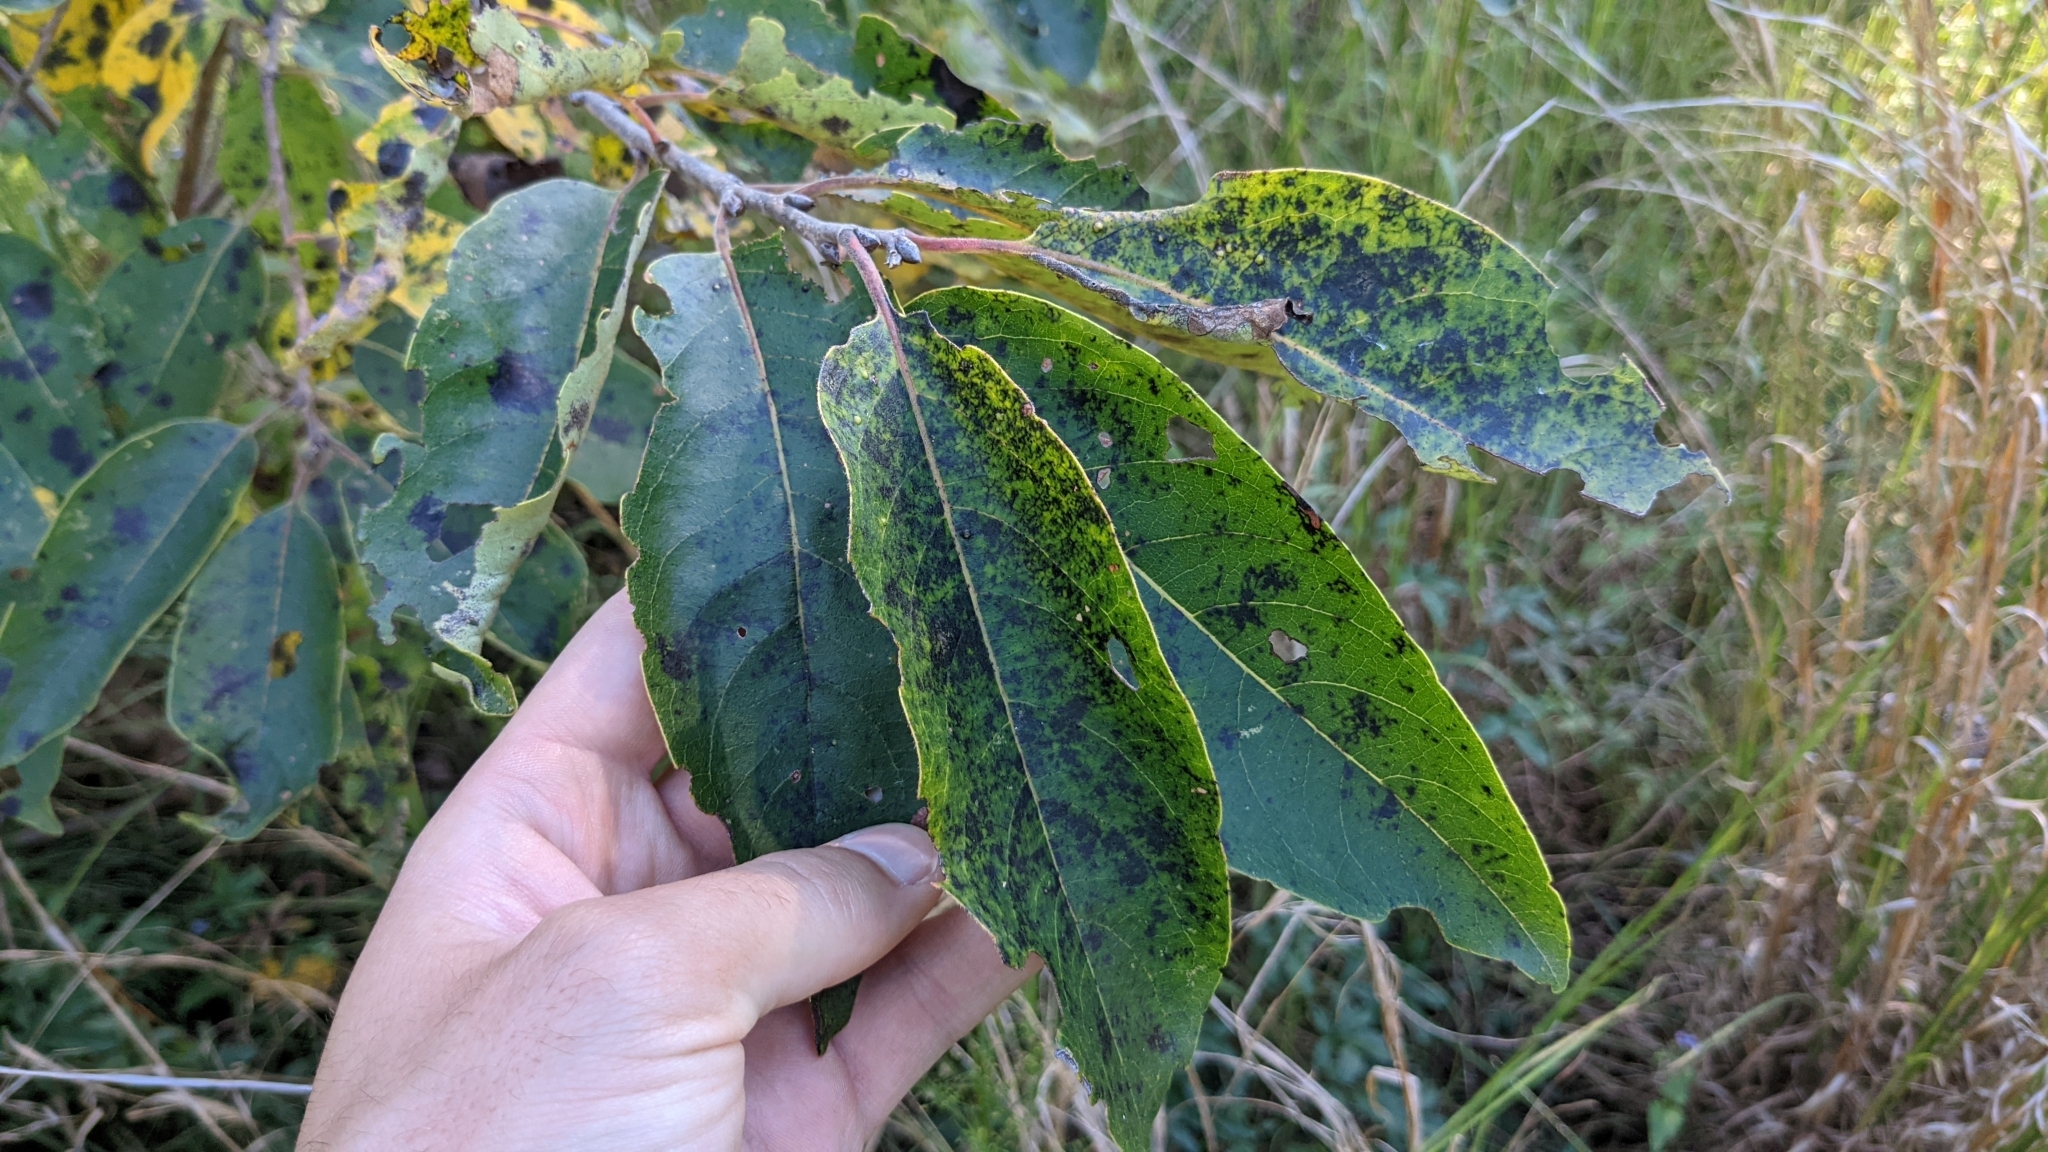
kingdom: Plantae
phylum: Tracheophyta
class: Magnoliopsida
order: Ericales
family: Ebenaceae
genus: Diospyros
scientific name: Diospyros virginiana
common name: Persimmon
